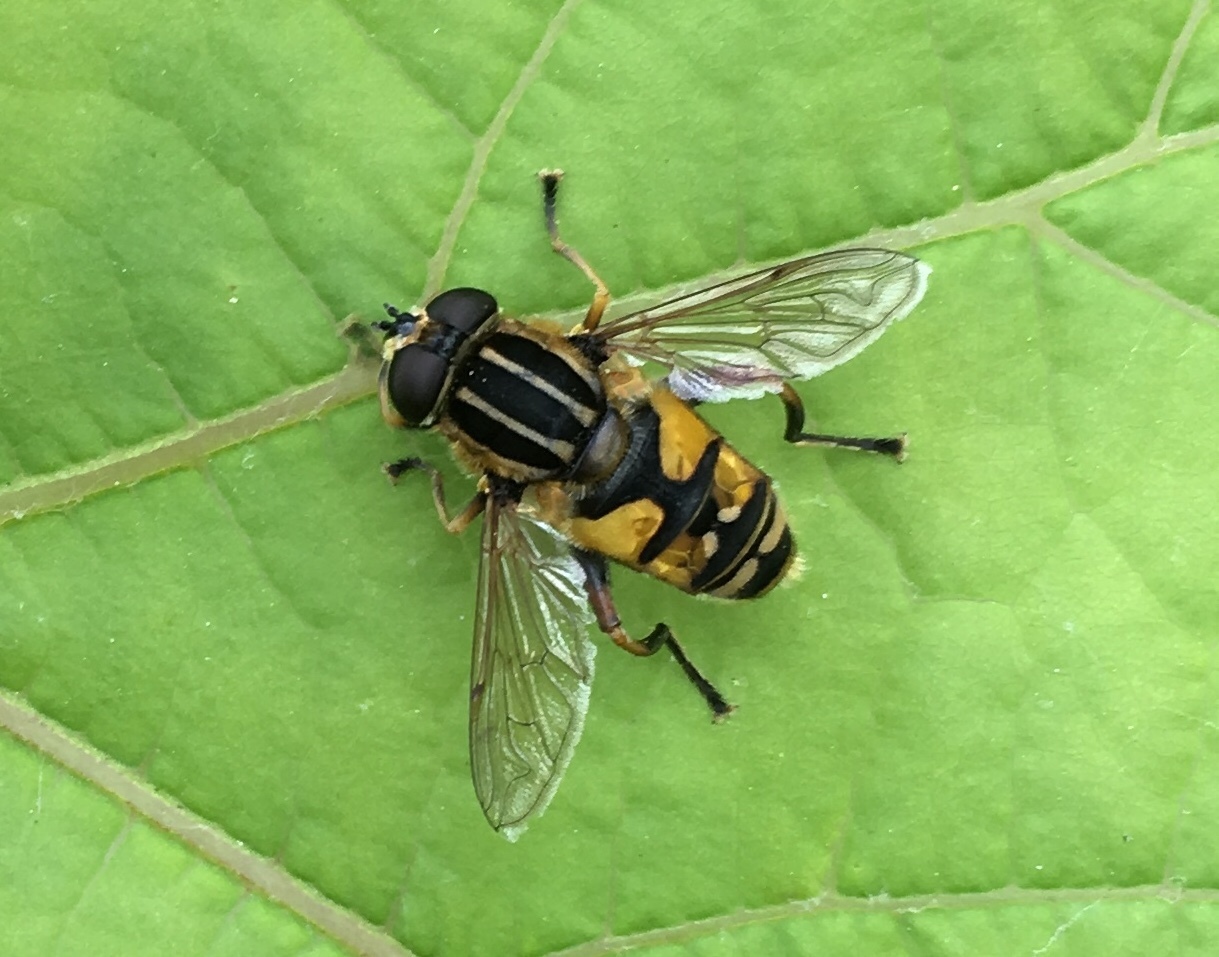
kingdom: Animalia
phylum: Arthropoda
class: Insecta
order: Diptera
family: Syrphidae
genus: Helophilus
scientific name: Helophilus pendulus
